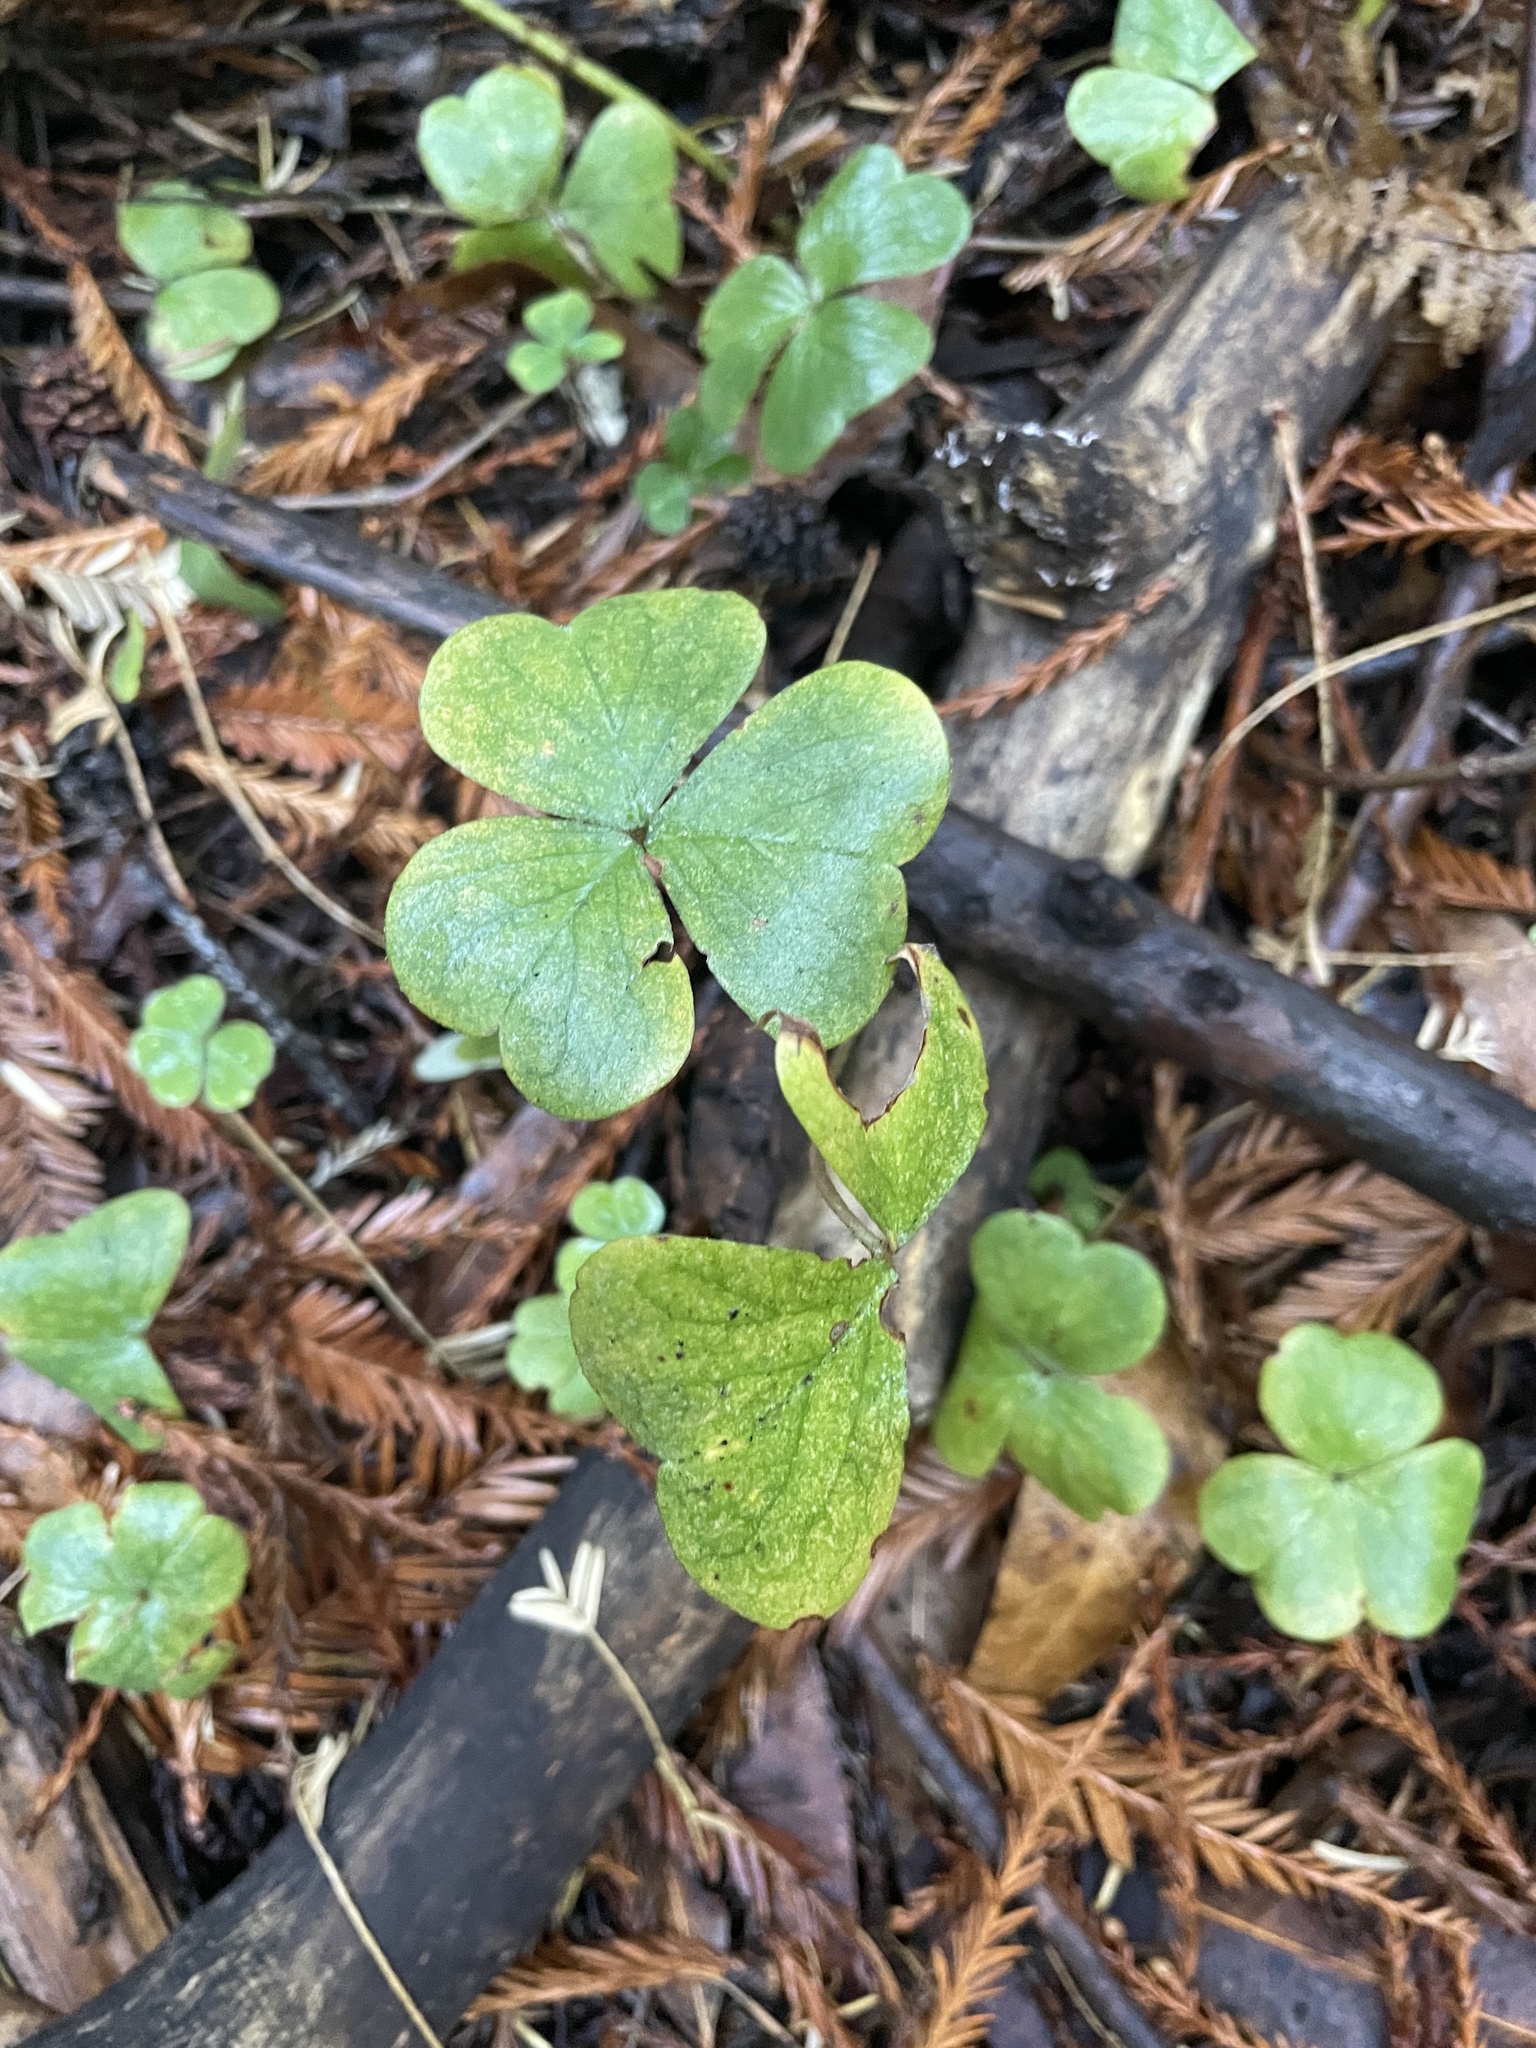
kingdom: Plantae
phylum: Tracheophyta
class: Magnoliopsida
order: Oxalidales
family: Oxalidaceae
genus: Oxalis
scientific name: Oxalis oregana
